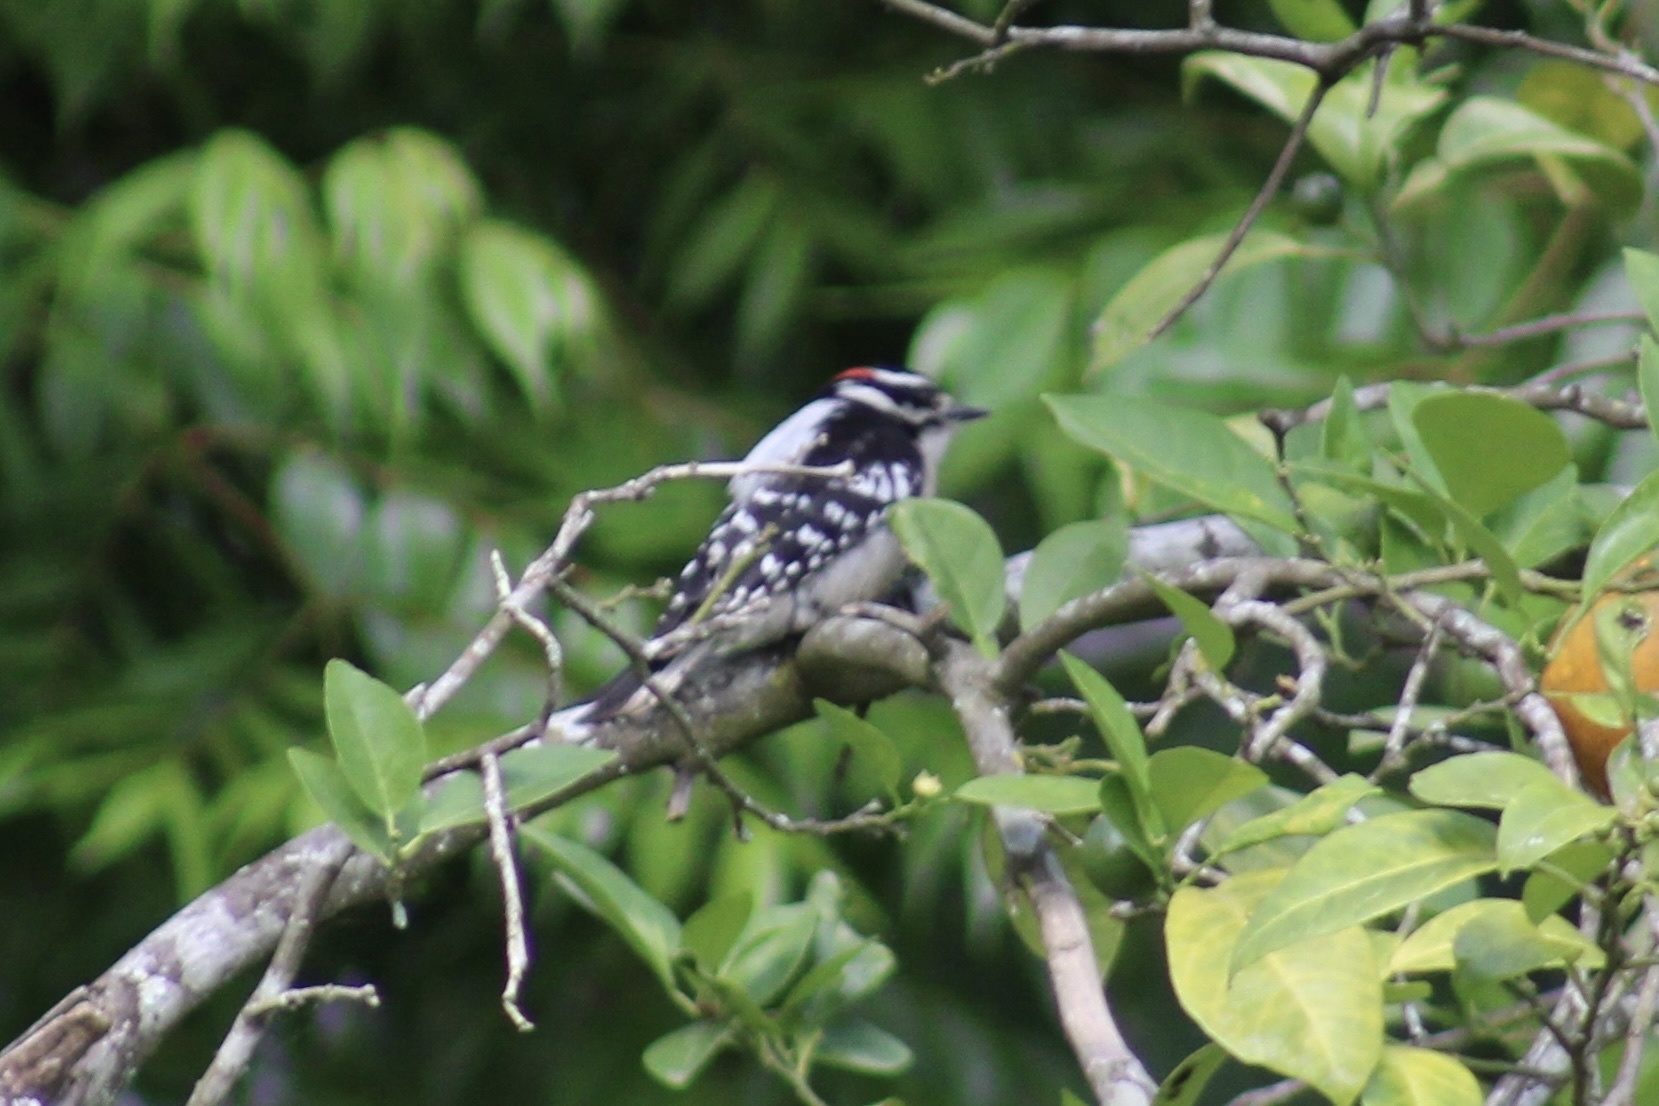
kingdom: Animalia
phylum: Chordata
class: Aves
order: Piciformes
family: Picidae
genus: Dryobates
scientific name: Dryobates pubescens
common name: Downy woodpecker
